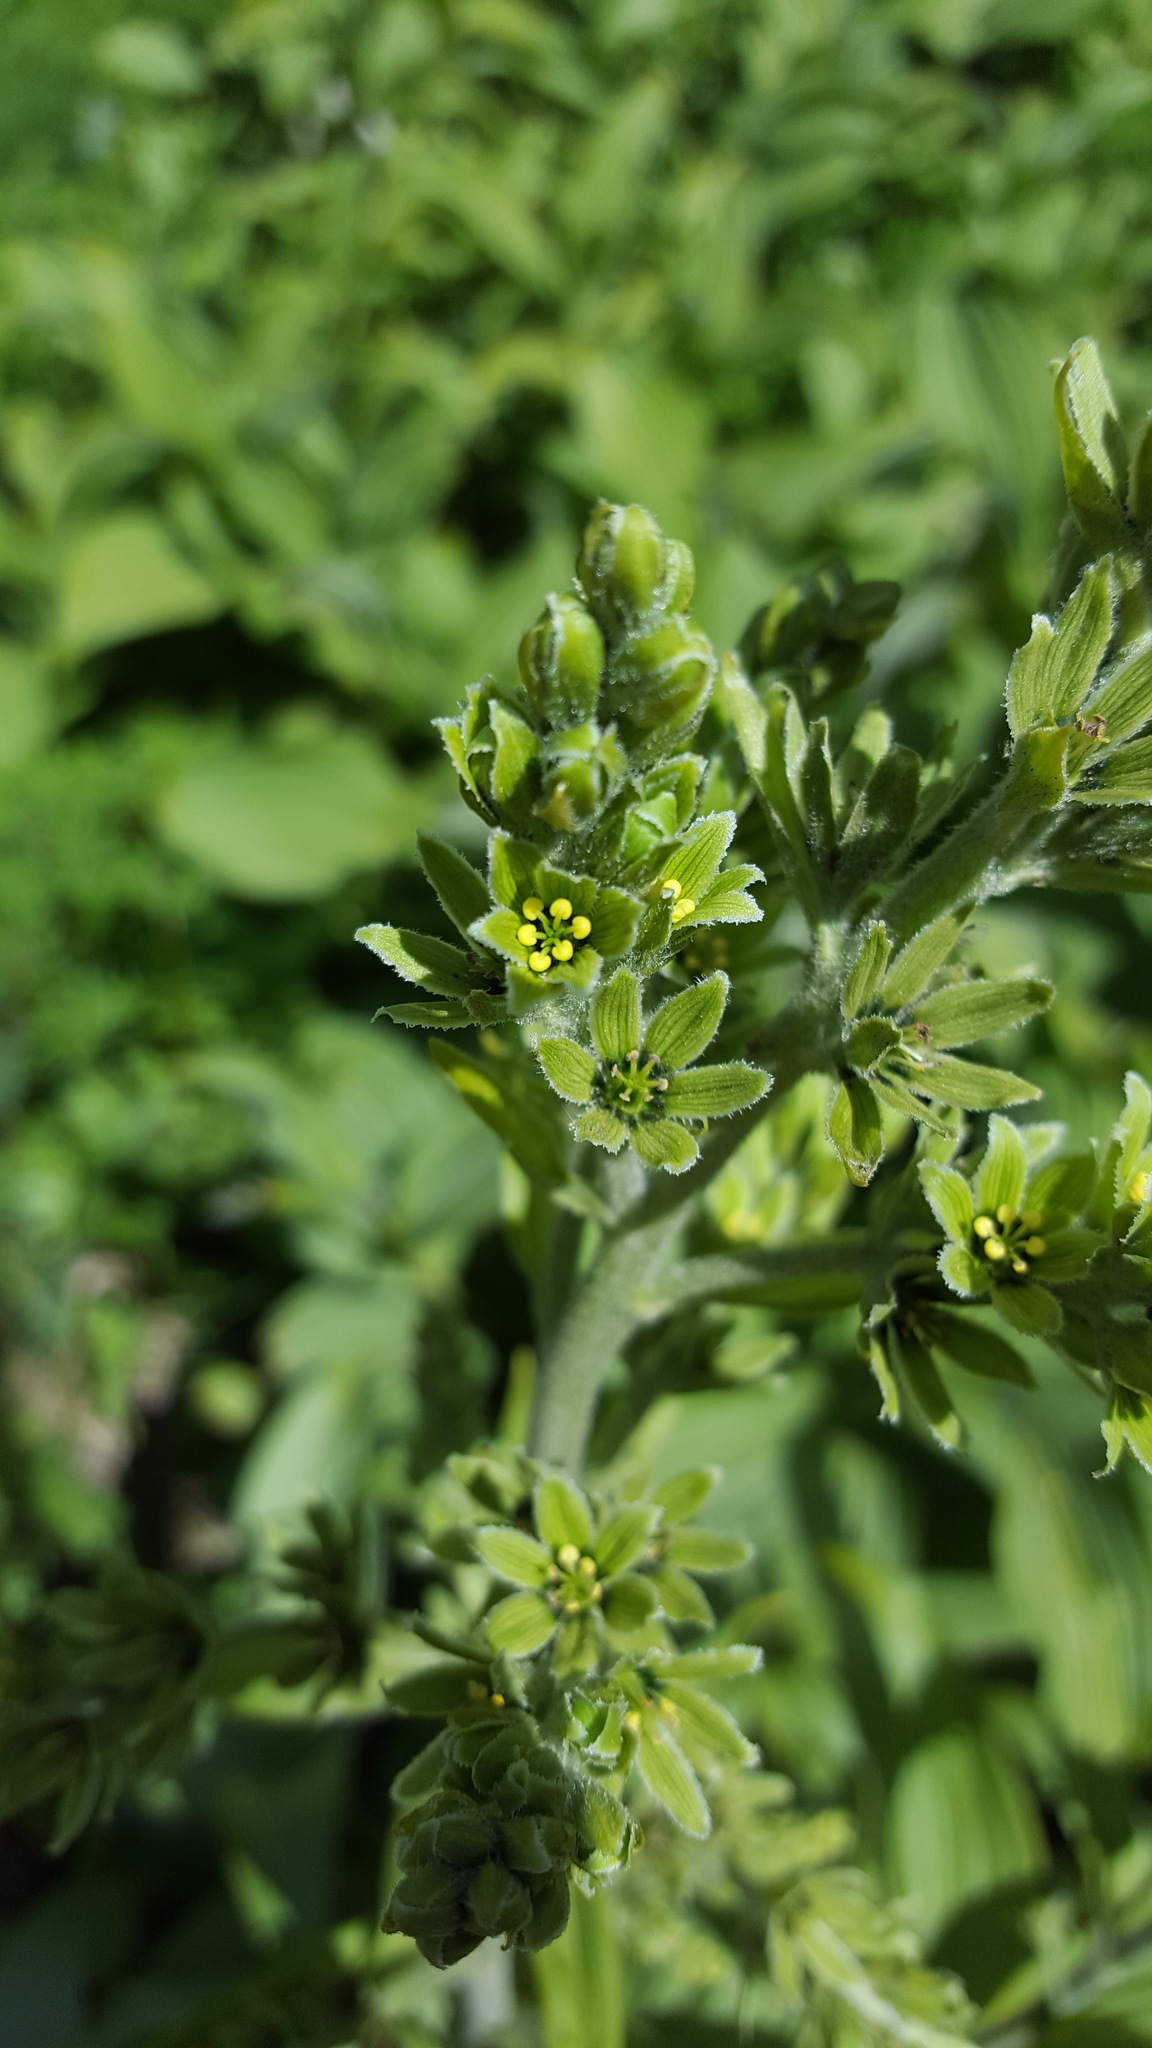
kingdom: Plantae
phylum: Tracheophyta
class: Liliopsida
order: Liliales
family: Melanthiaceae
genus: Veratrum
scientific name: Veratrum viride
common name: American false hellebore
